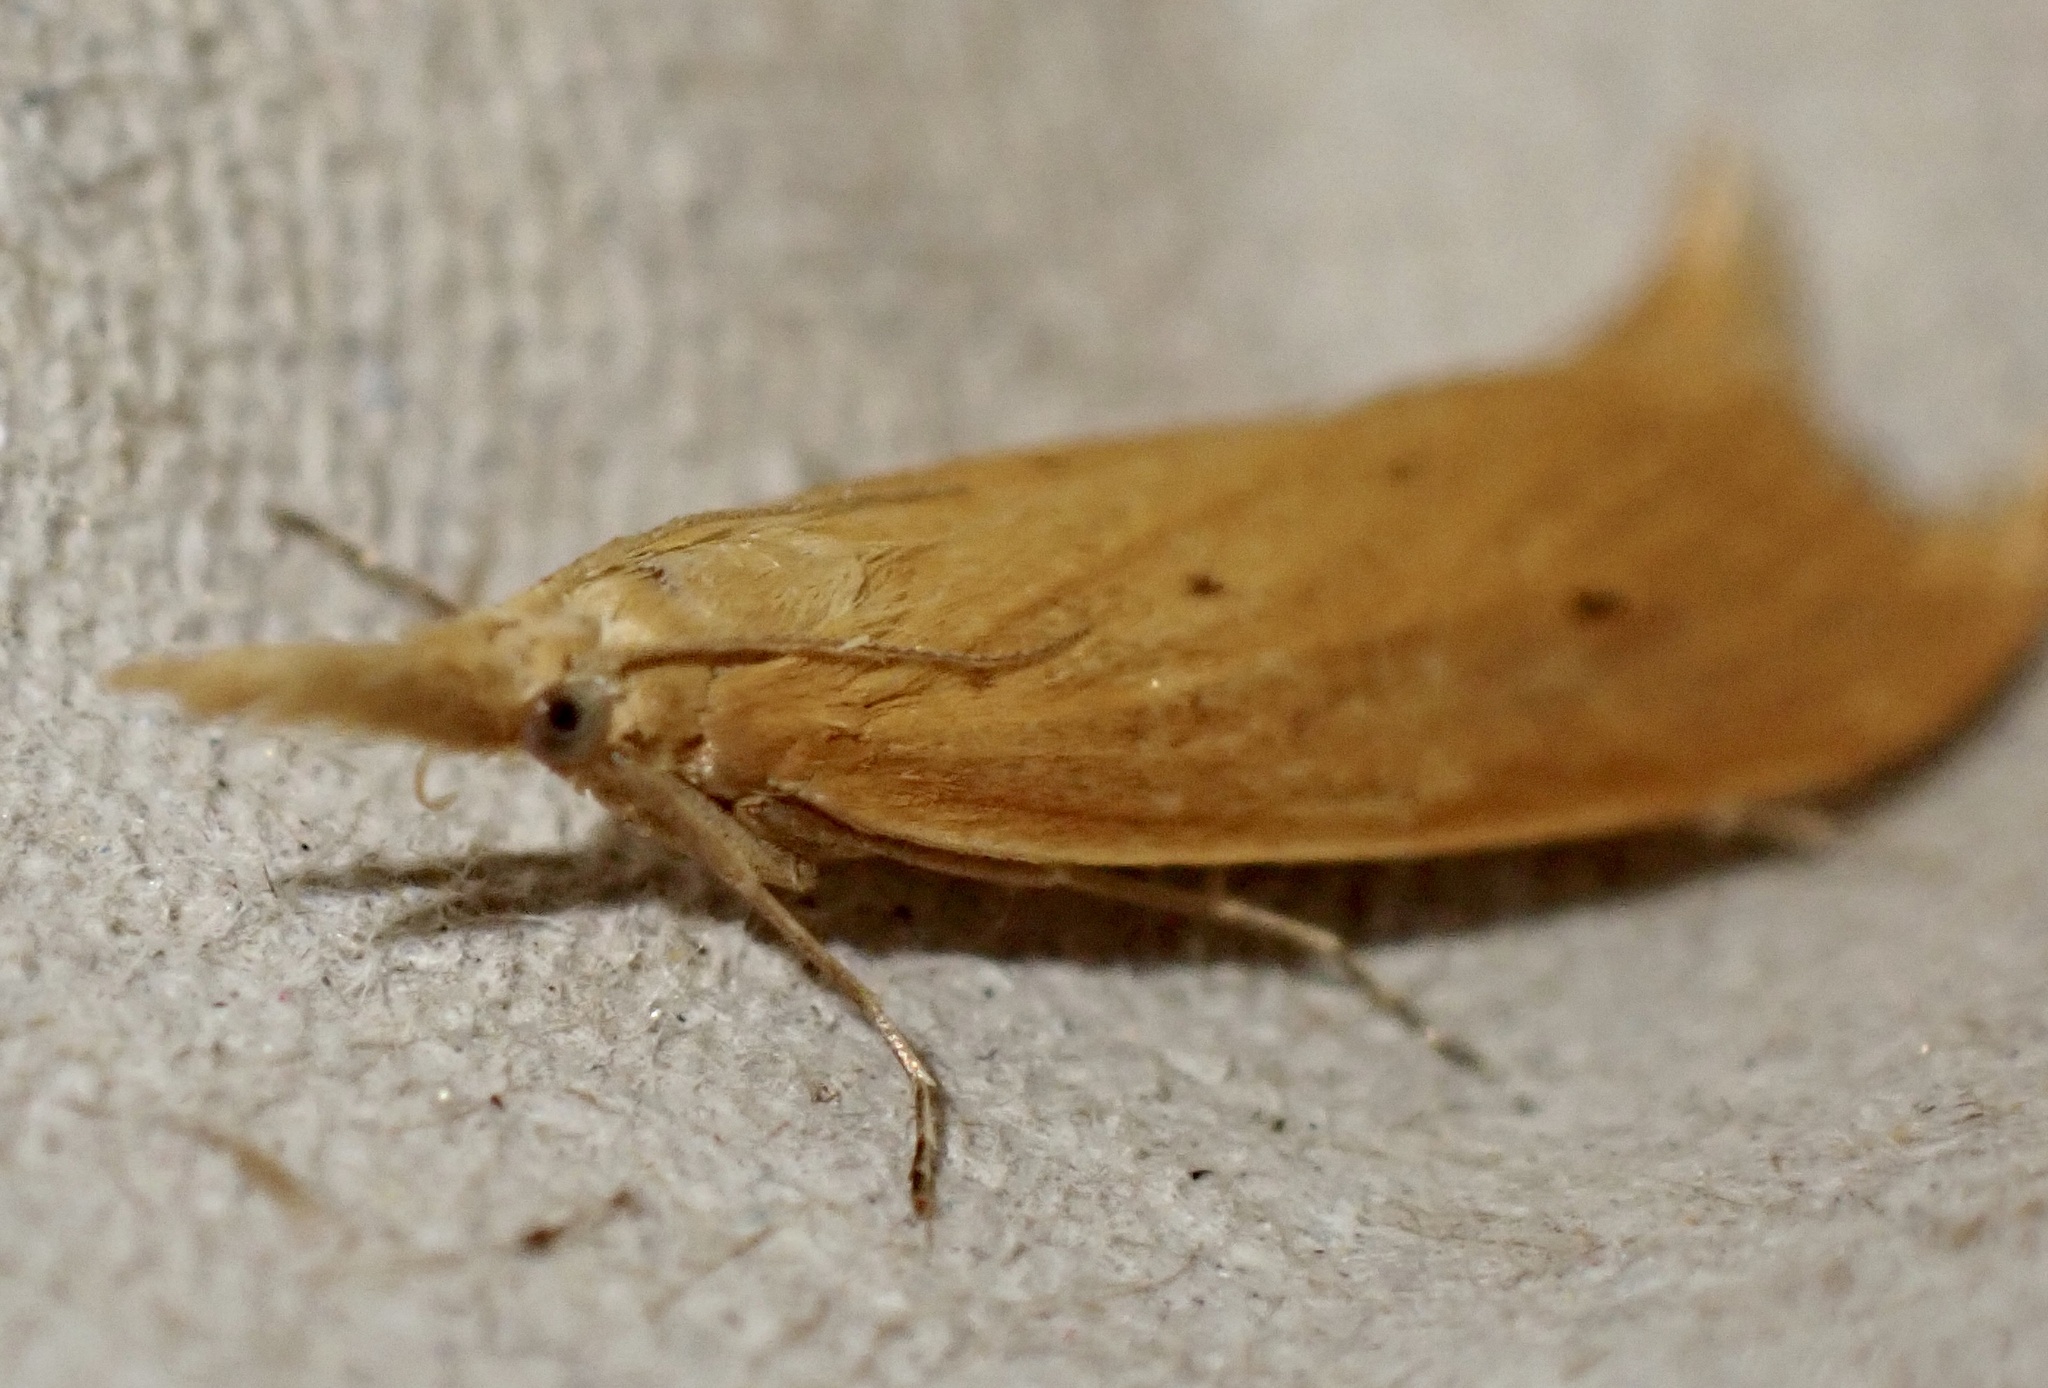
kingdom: Animalia
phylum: Arthropoda
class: Insecta
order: Lepidoptera
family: Crambidae
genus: Donacaula
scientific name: Donacaula forficella
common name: Pale water-veneer
